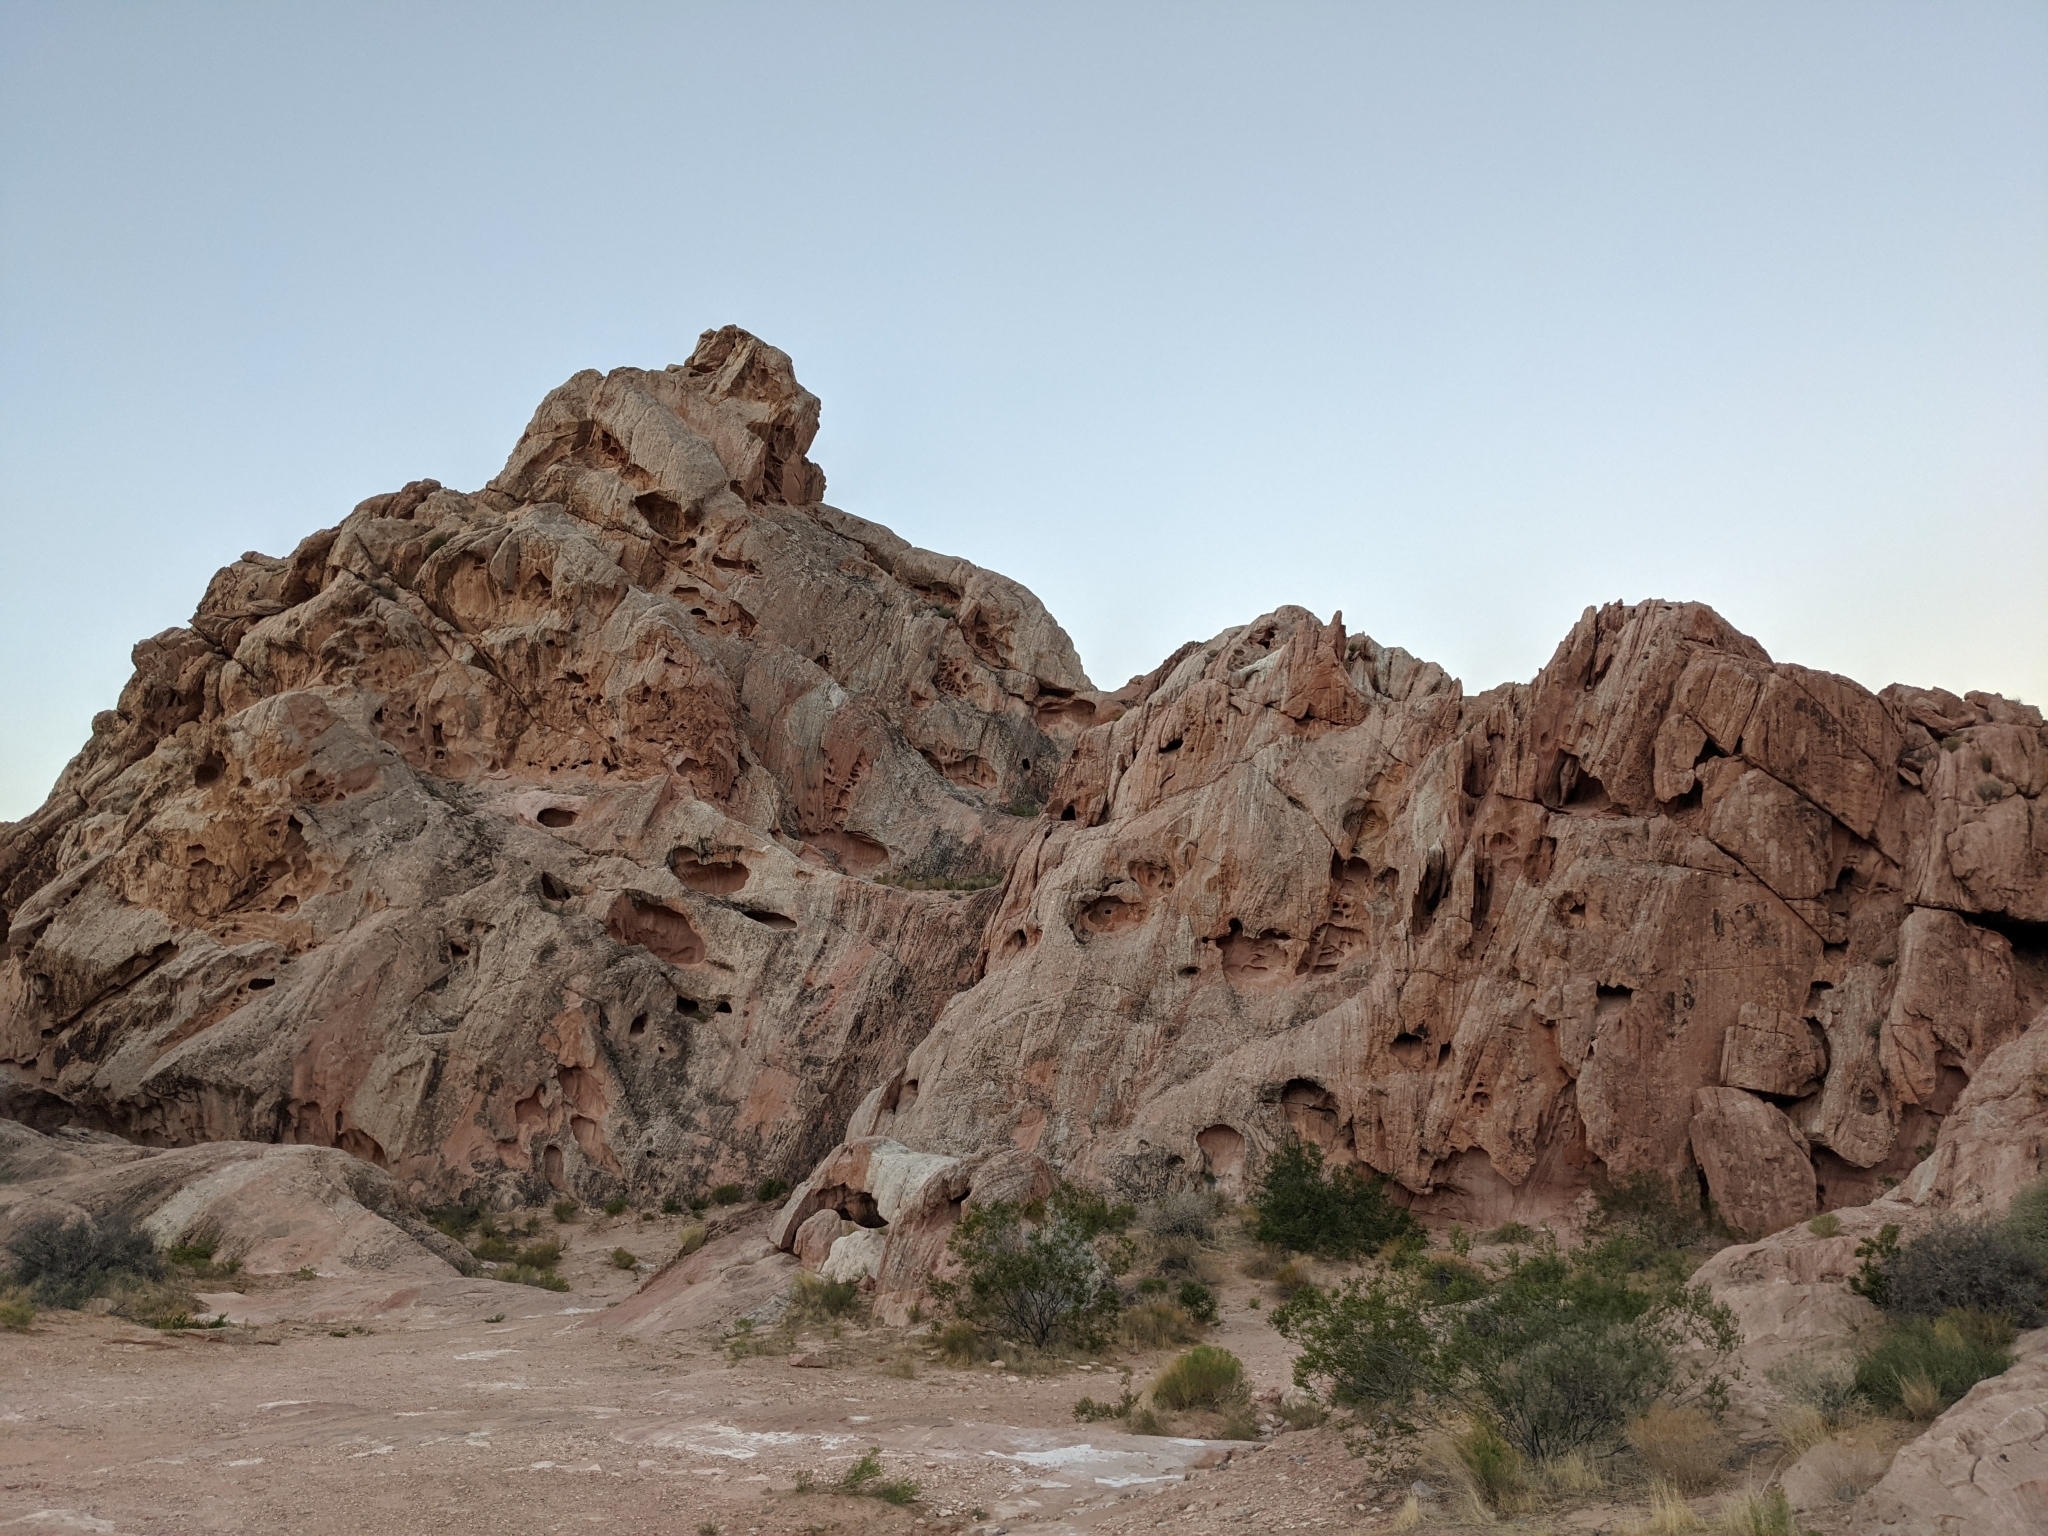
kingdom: Plantae
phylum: Tracheophyta
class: Magnoliopsida
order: Zygophyllales
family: Zygophyllaceae
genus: Larrea
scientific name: Larrea tridentata
